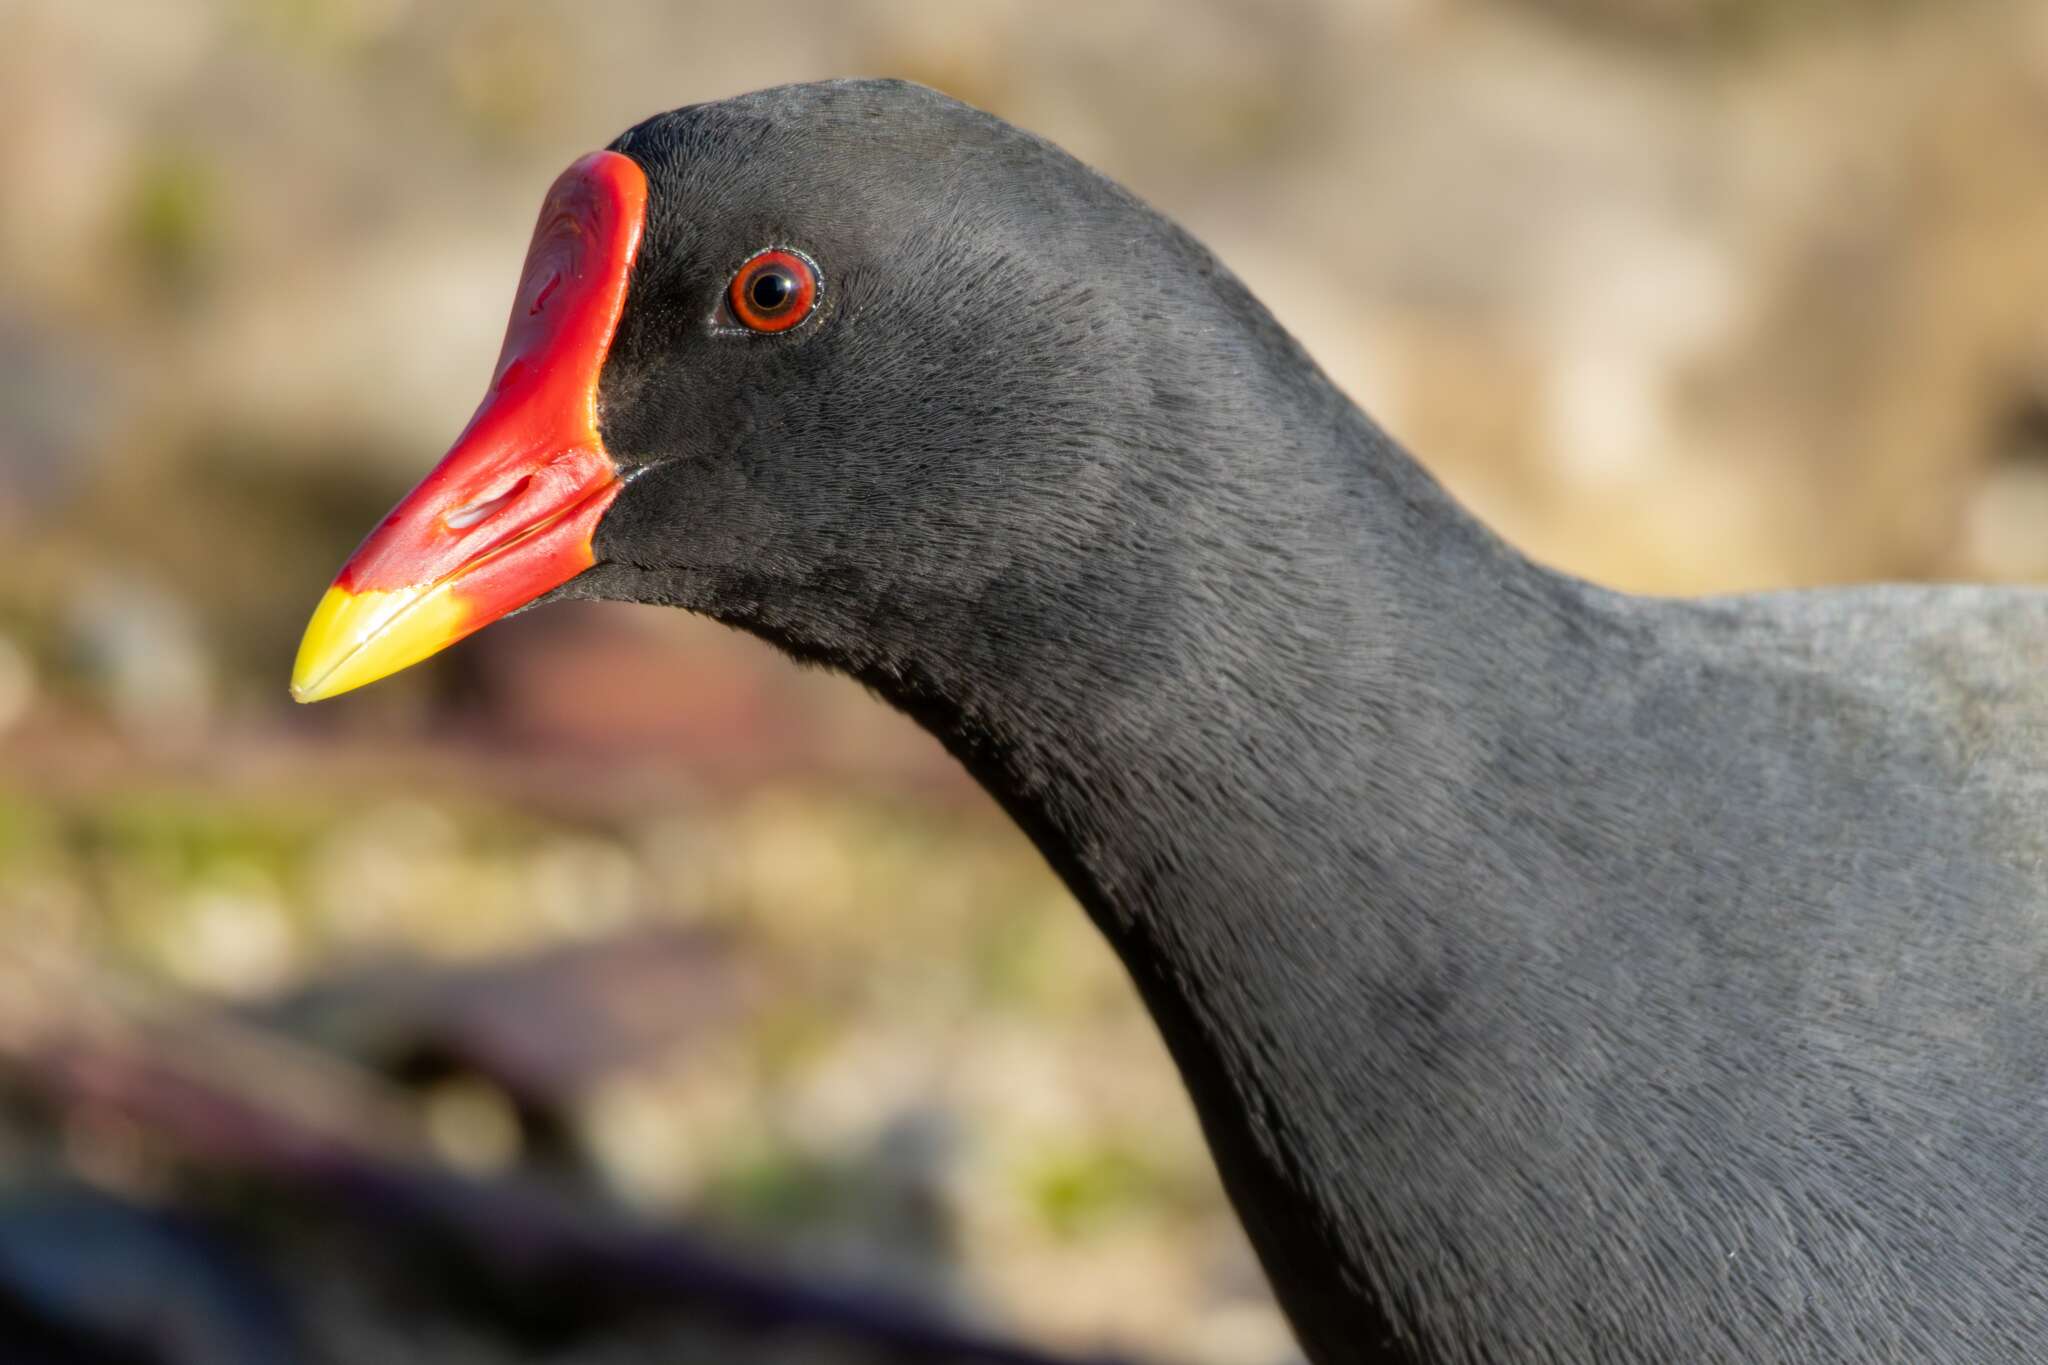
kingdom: Animalia
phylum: Chordata
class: Aves
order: Gruiformes
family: Rallidae
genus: Gallinula
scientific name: Gallinula chloropus
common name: Common moorhen
